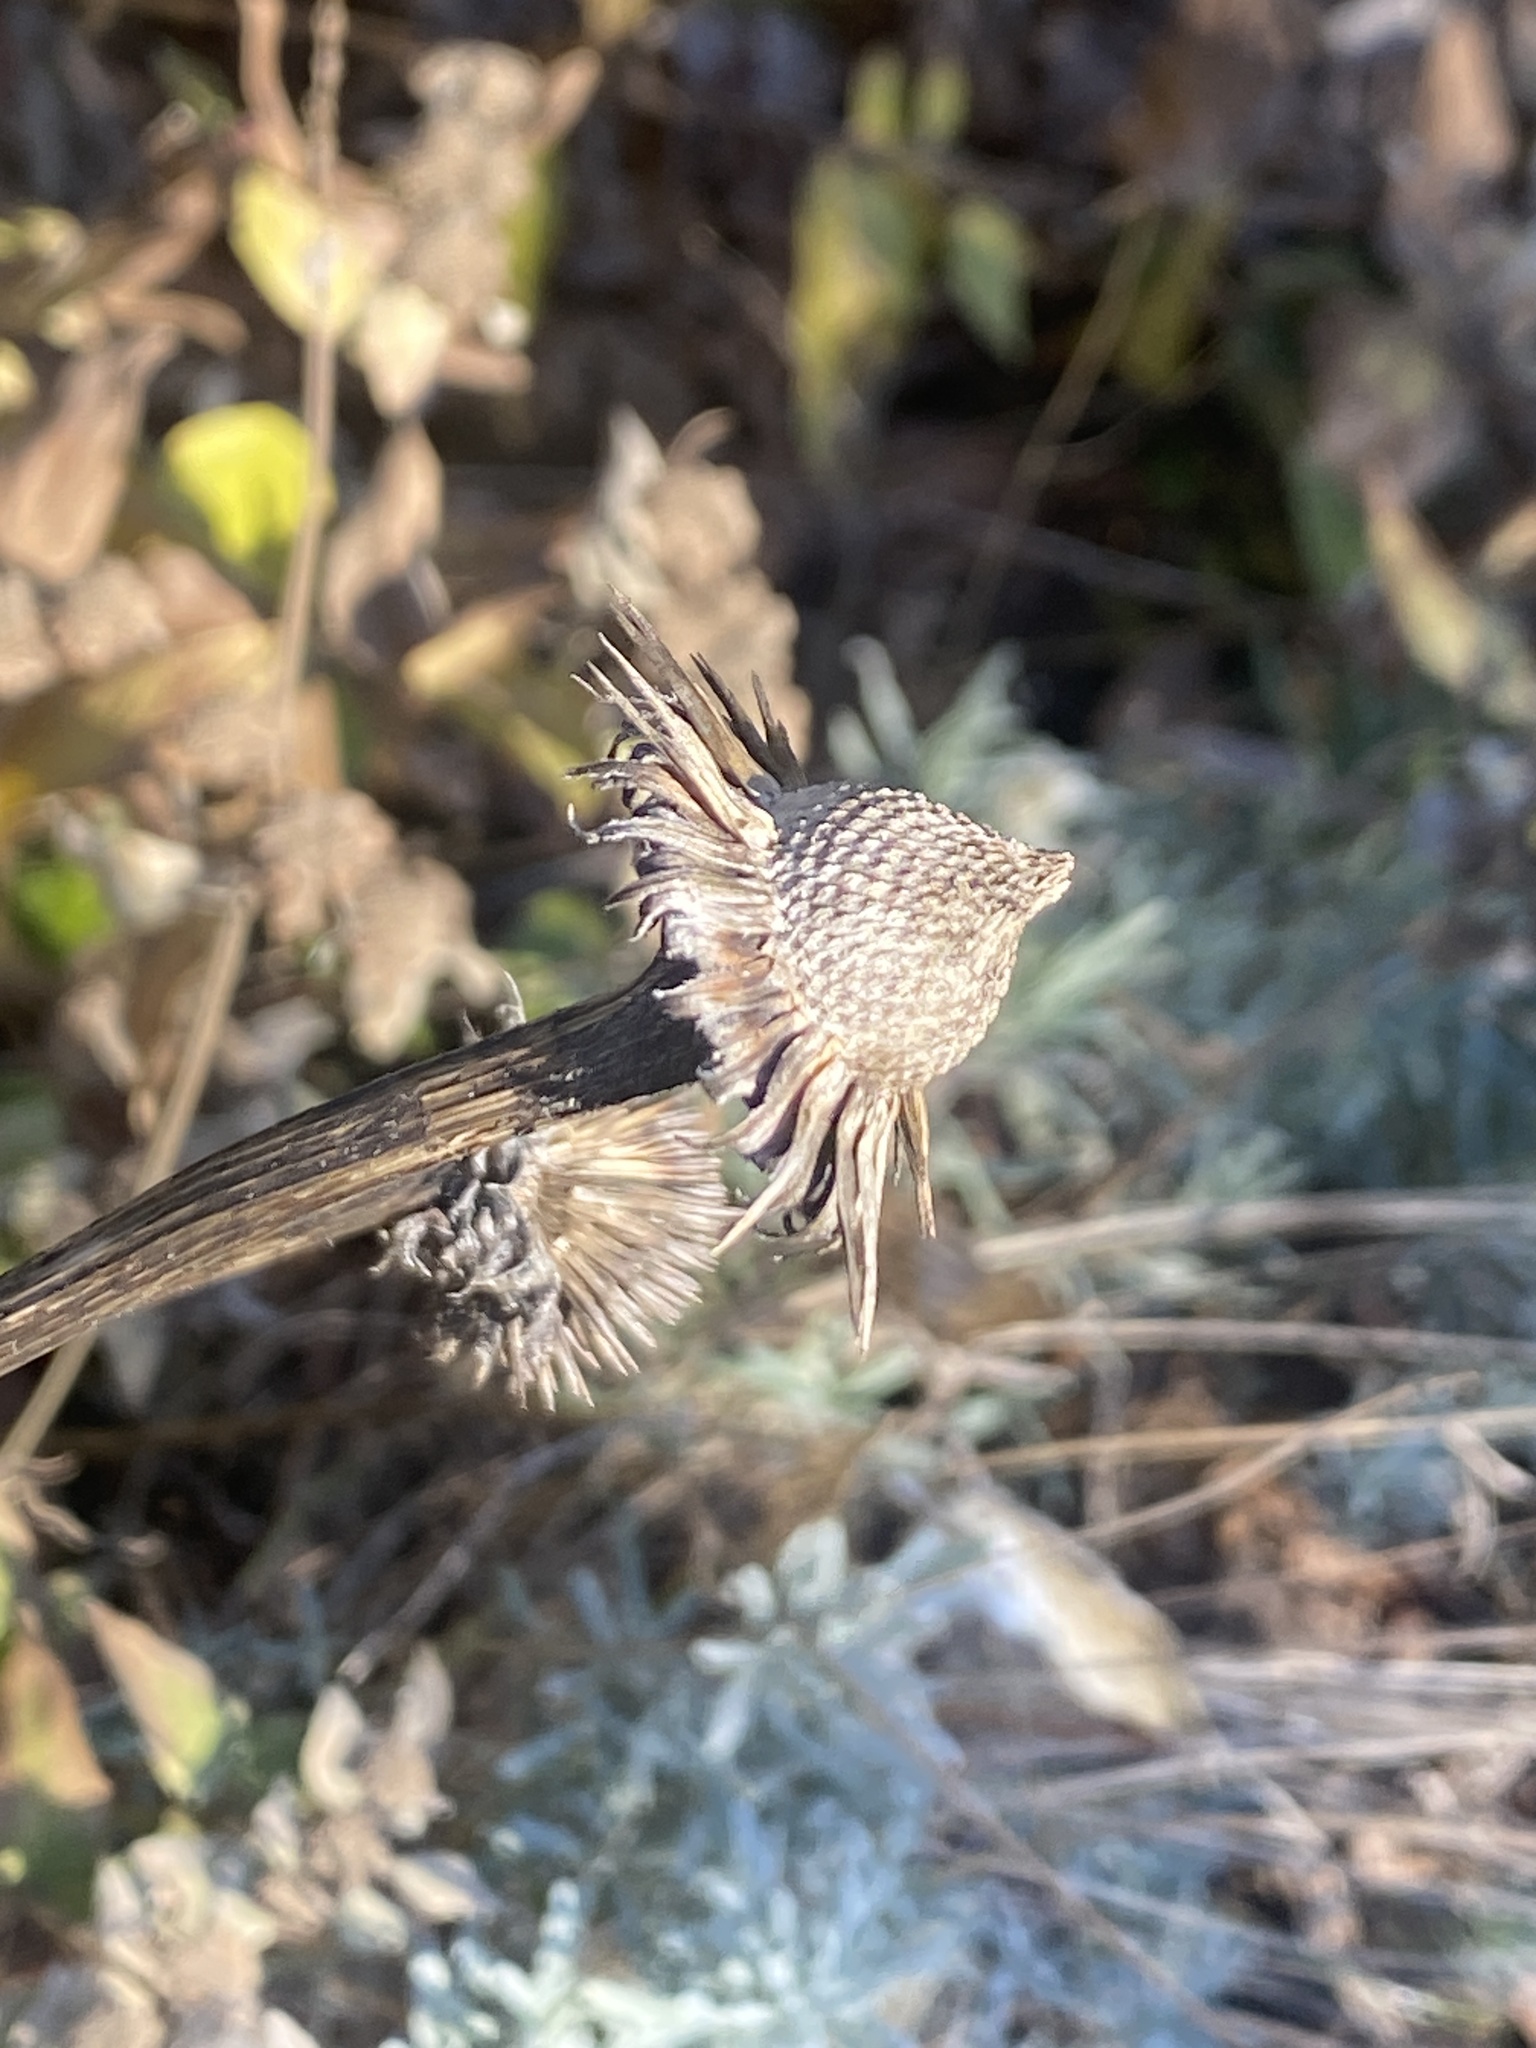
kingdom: Plantae
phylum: Tracheophyta
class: Magnoliopsida
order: Asterales
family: Asteraceae
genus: Echinacea
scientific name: Echinacea purpurea
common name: Broad-leaved purple coneflower
